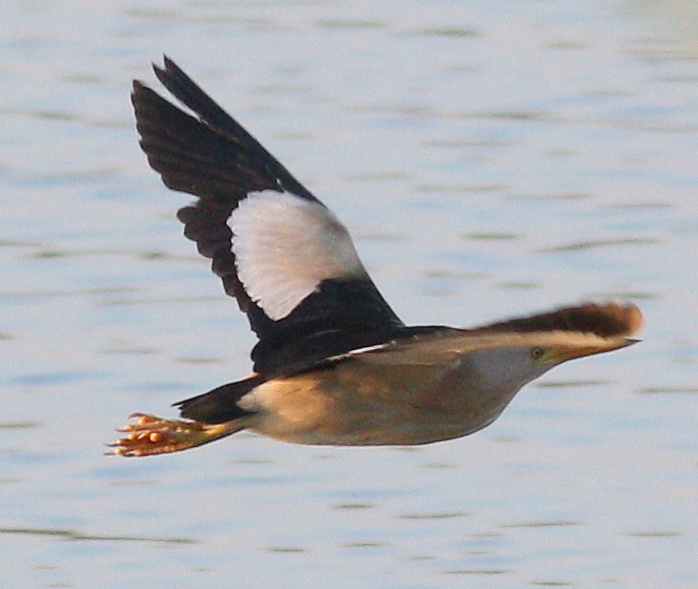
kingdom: Animalia
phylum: Chordata
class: Aves
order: Pelecaniformes
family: Ardeidae
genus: Ixobrychus
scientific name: Ixobrychus minutus
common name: Little bittern
